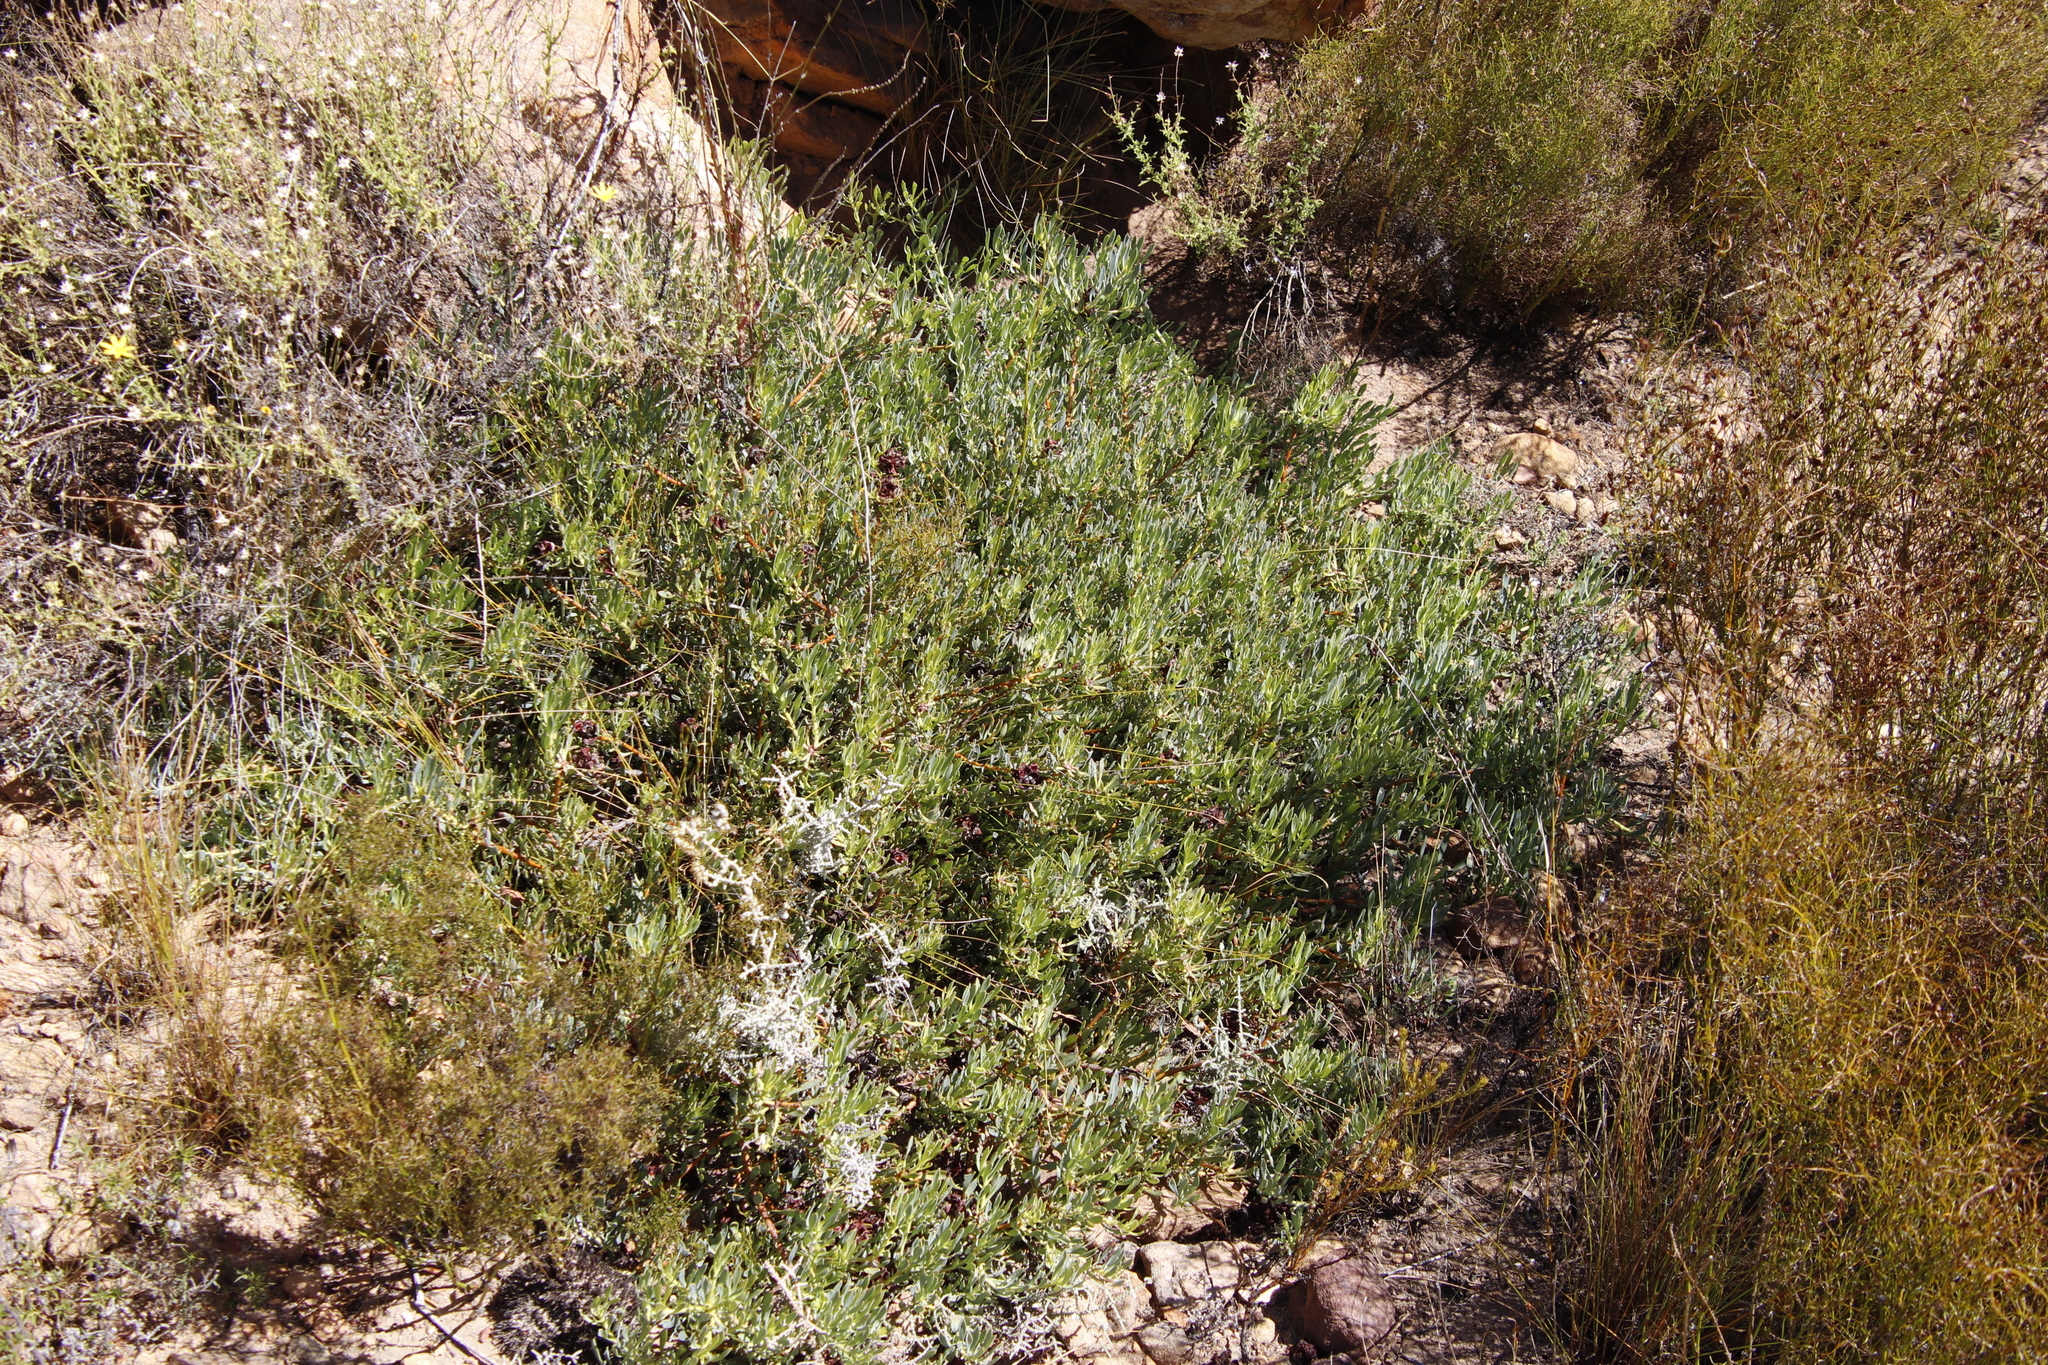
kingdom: Plantae
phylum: Tracheophyta
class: Magnoliopsida
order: Proteales
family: Proteaceae
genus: Leucadendron
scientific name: Leucadendron glaberrimum
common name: Common oily conebush
